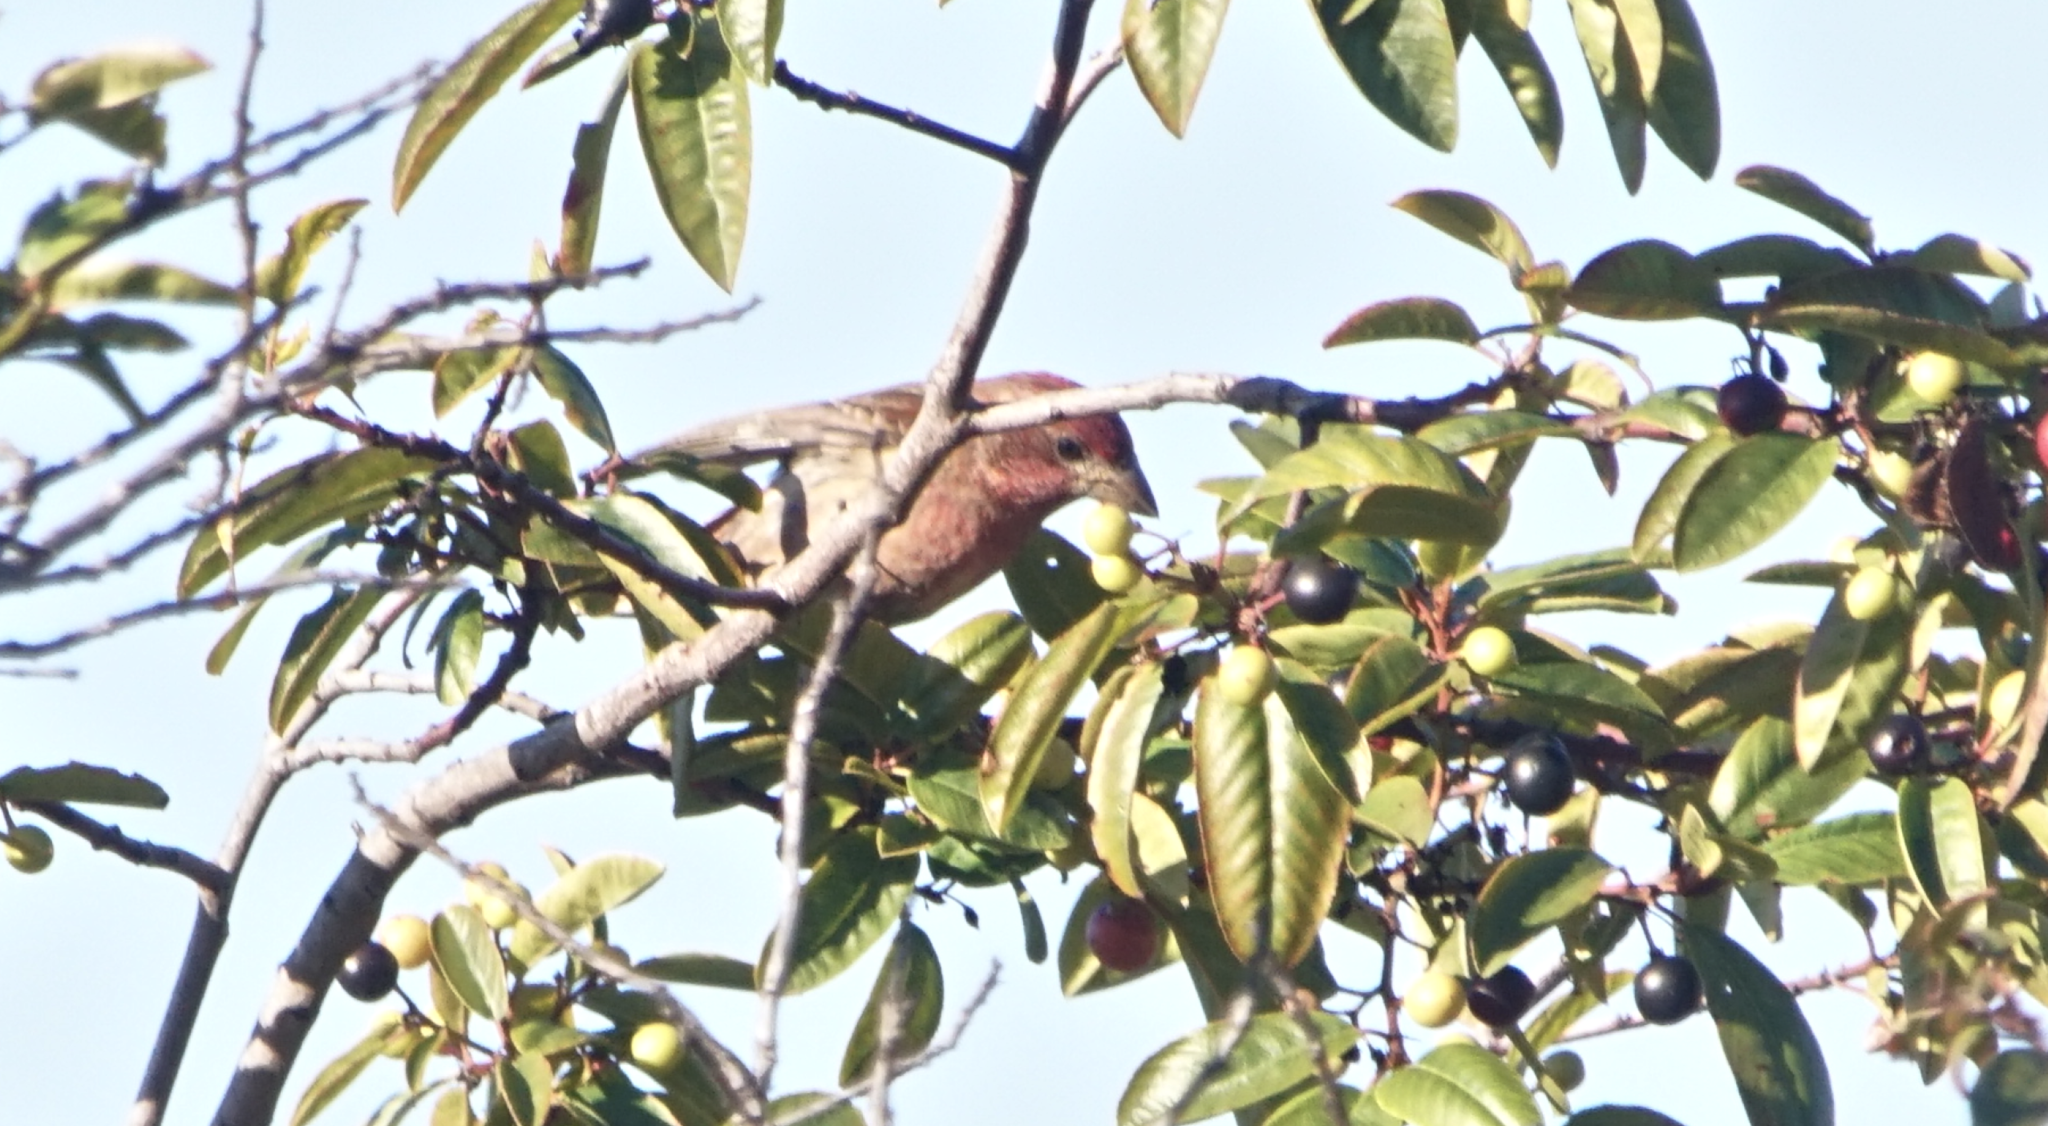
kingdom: Animalia
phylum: Chordata
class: Aves
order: Passeriformes
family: Fringillidae
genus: Haemorhous
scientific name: Haemorhous purpureus
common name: Purple finch
